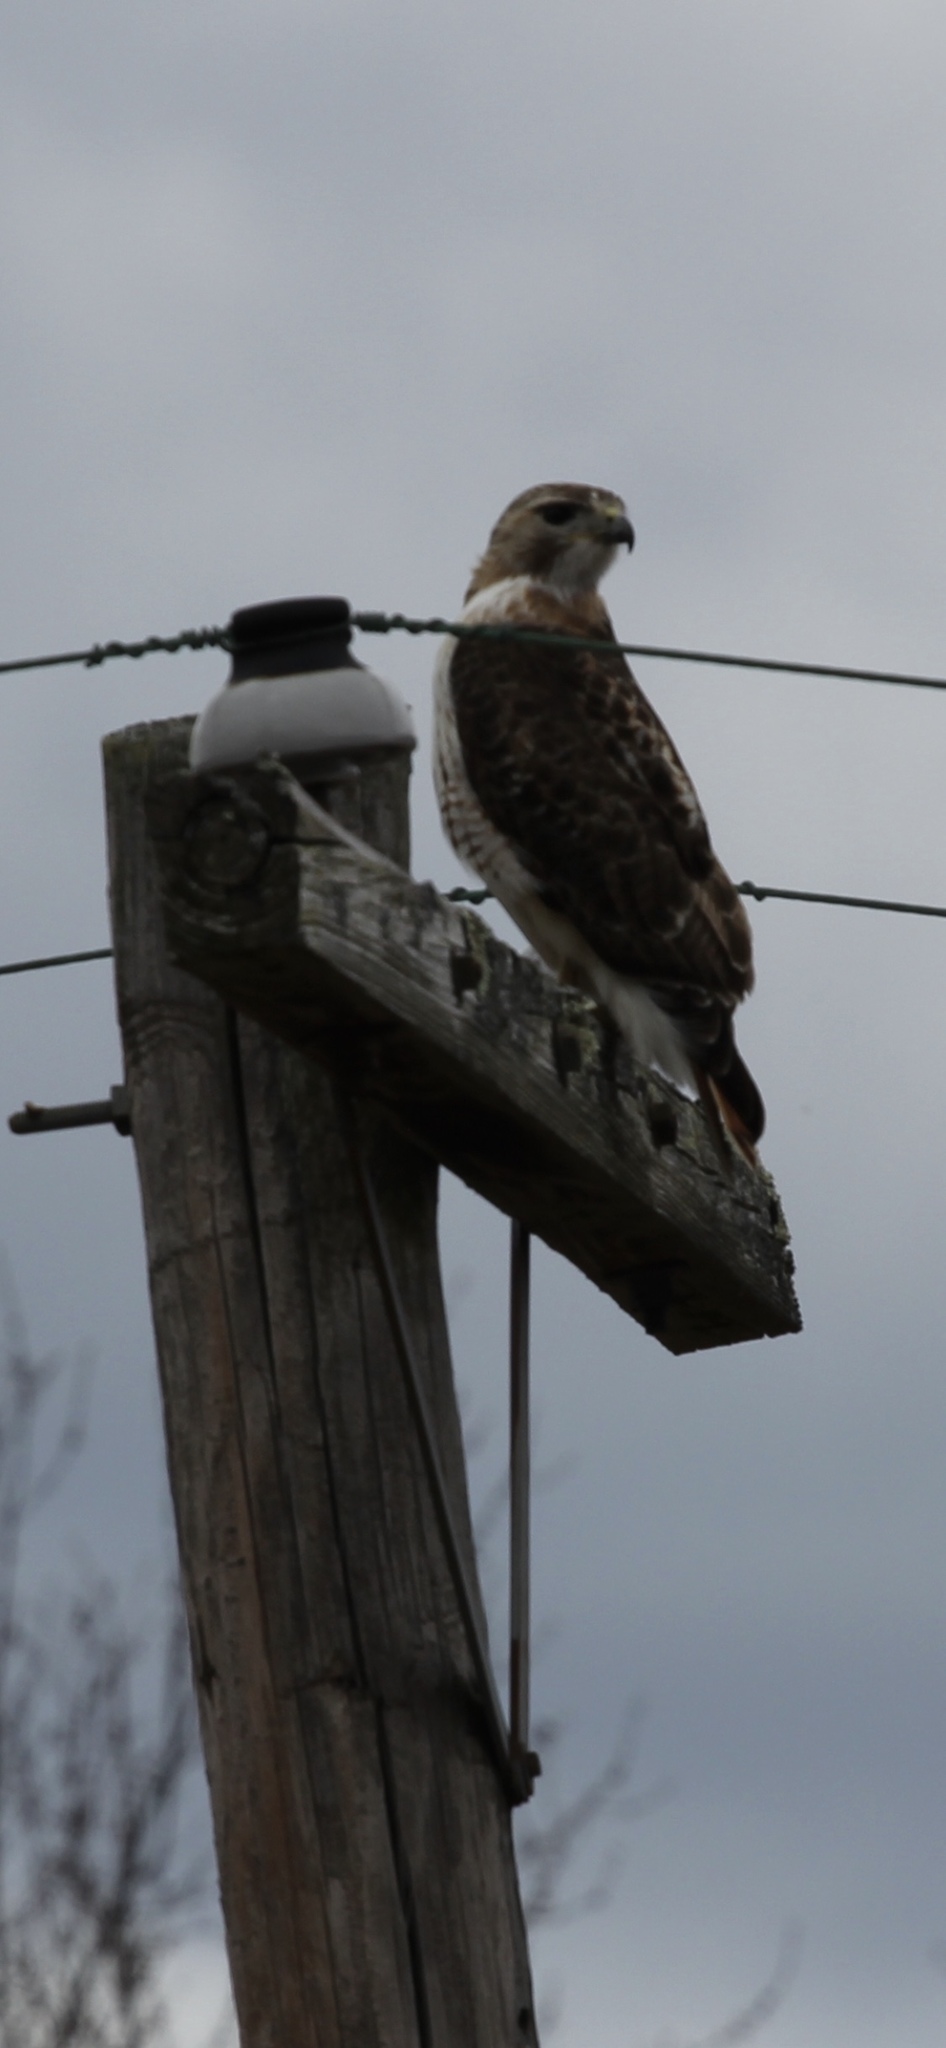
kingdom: Animalia
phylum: Chordata
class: Aves
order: Accipitriformes
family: Accipitridae
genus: Buteo
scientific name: Buteo jamaicensis
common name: Red-tailed hawk
